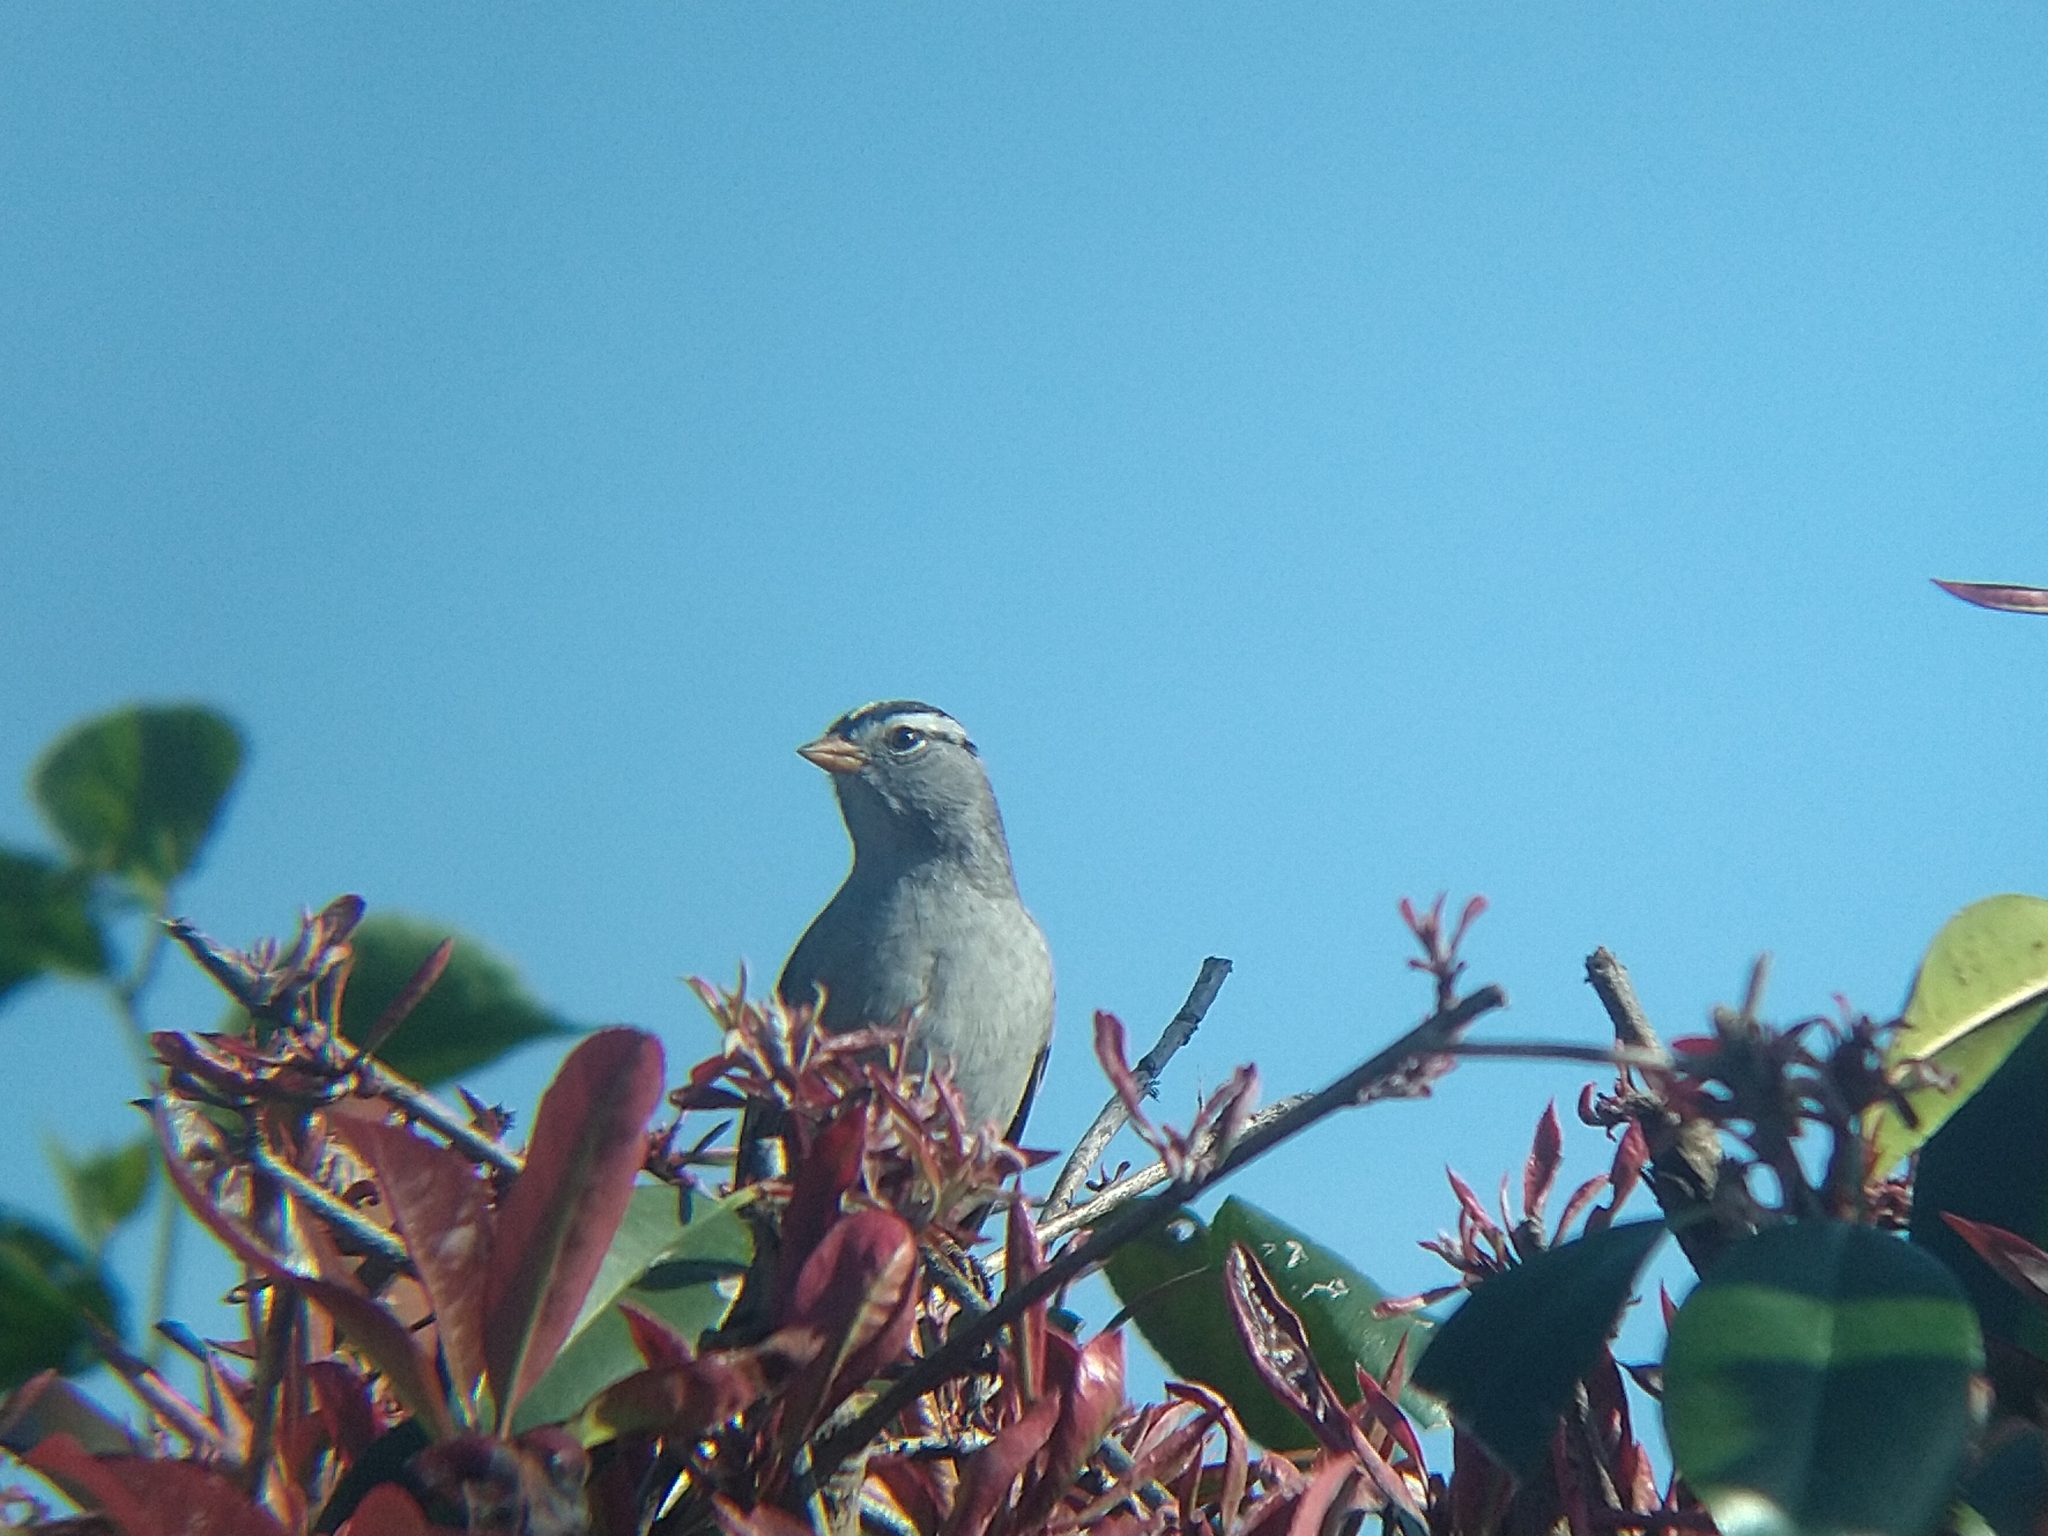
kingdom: Animalia
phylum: Chordata
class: Aves
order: Passeriformes
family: Passerellidae
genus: Zonotrichia
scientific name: Zonotrichia leucophrys
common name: White-crowned sparrow
